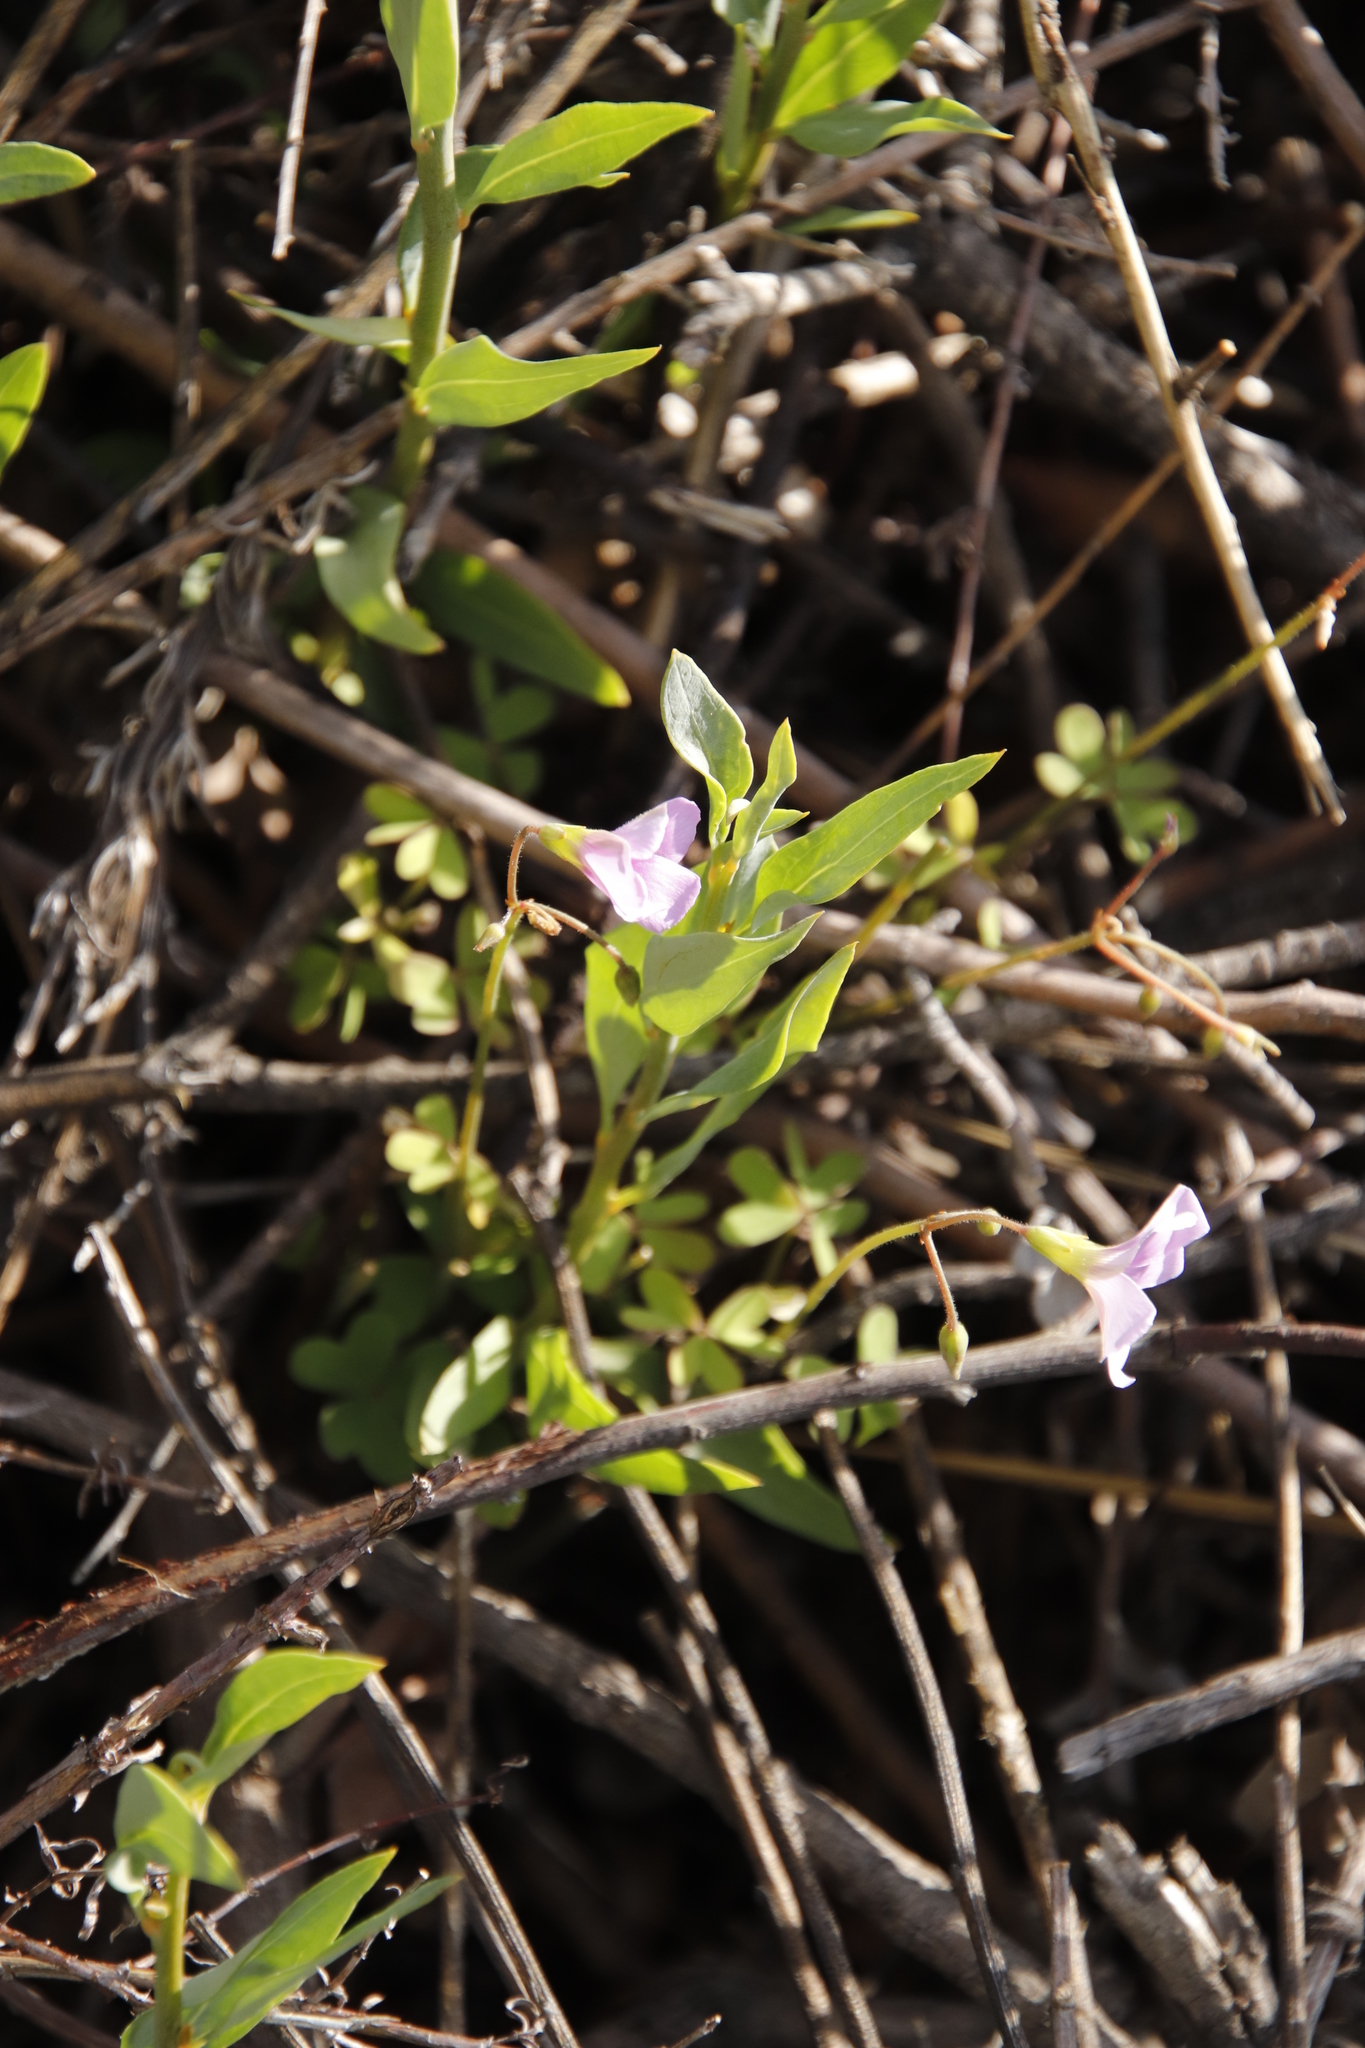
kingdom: Plantae
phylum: Tracheophyta
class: Magnoliopsida
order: Oxalidales
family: Oxalidaceae
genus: Oxalis
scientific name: Oxalis livida
